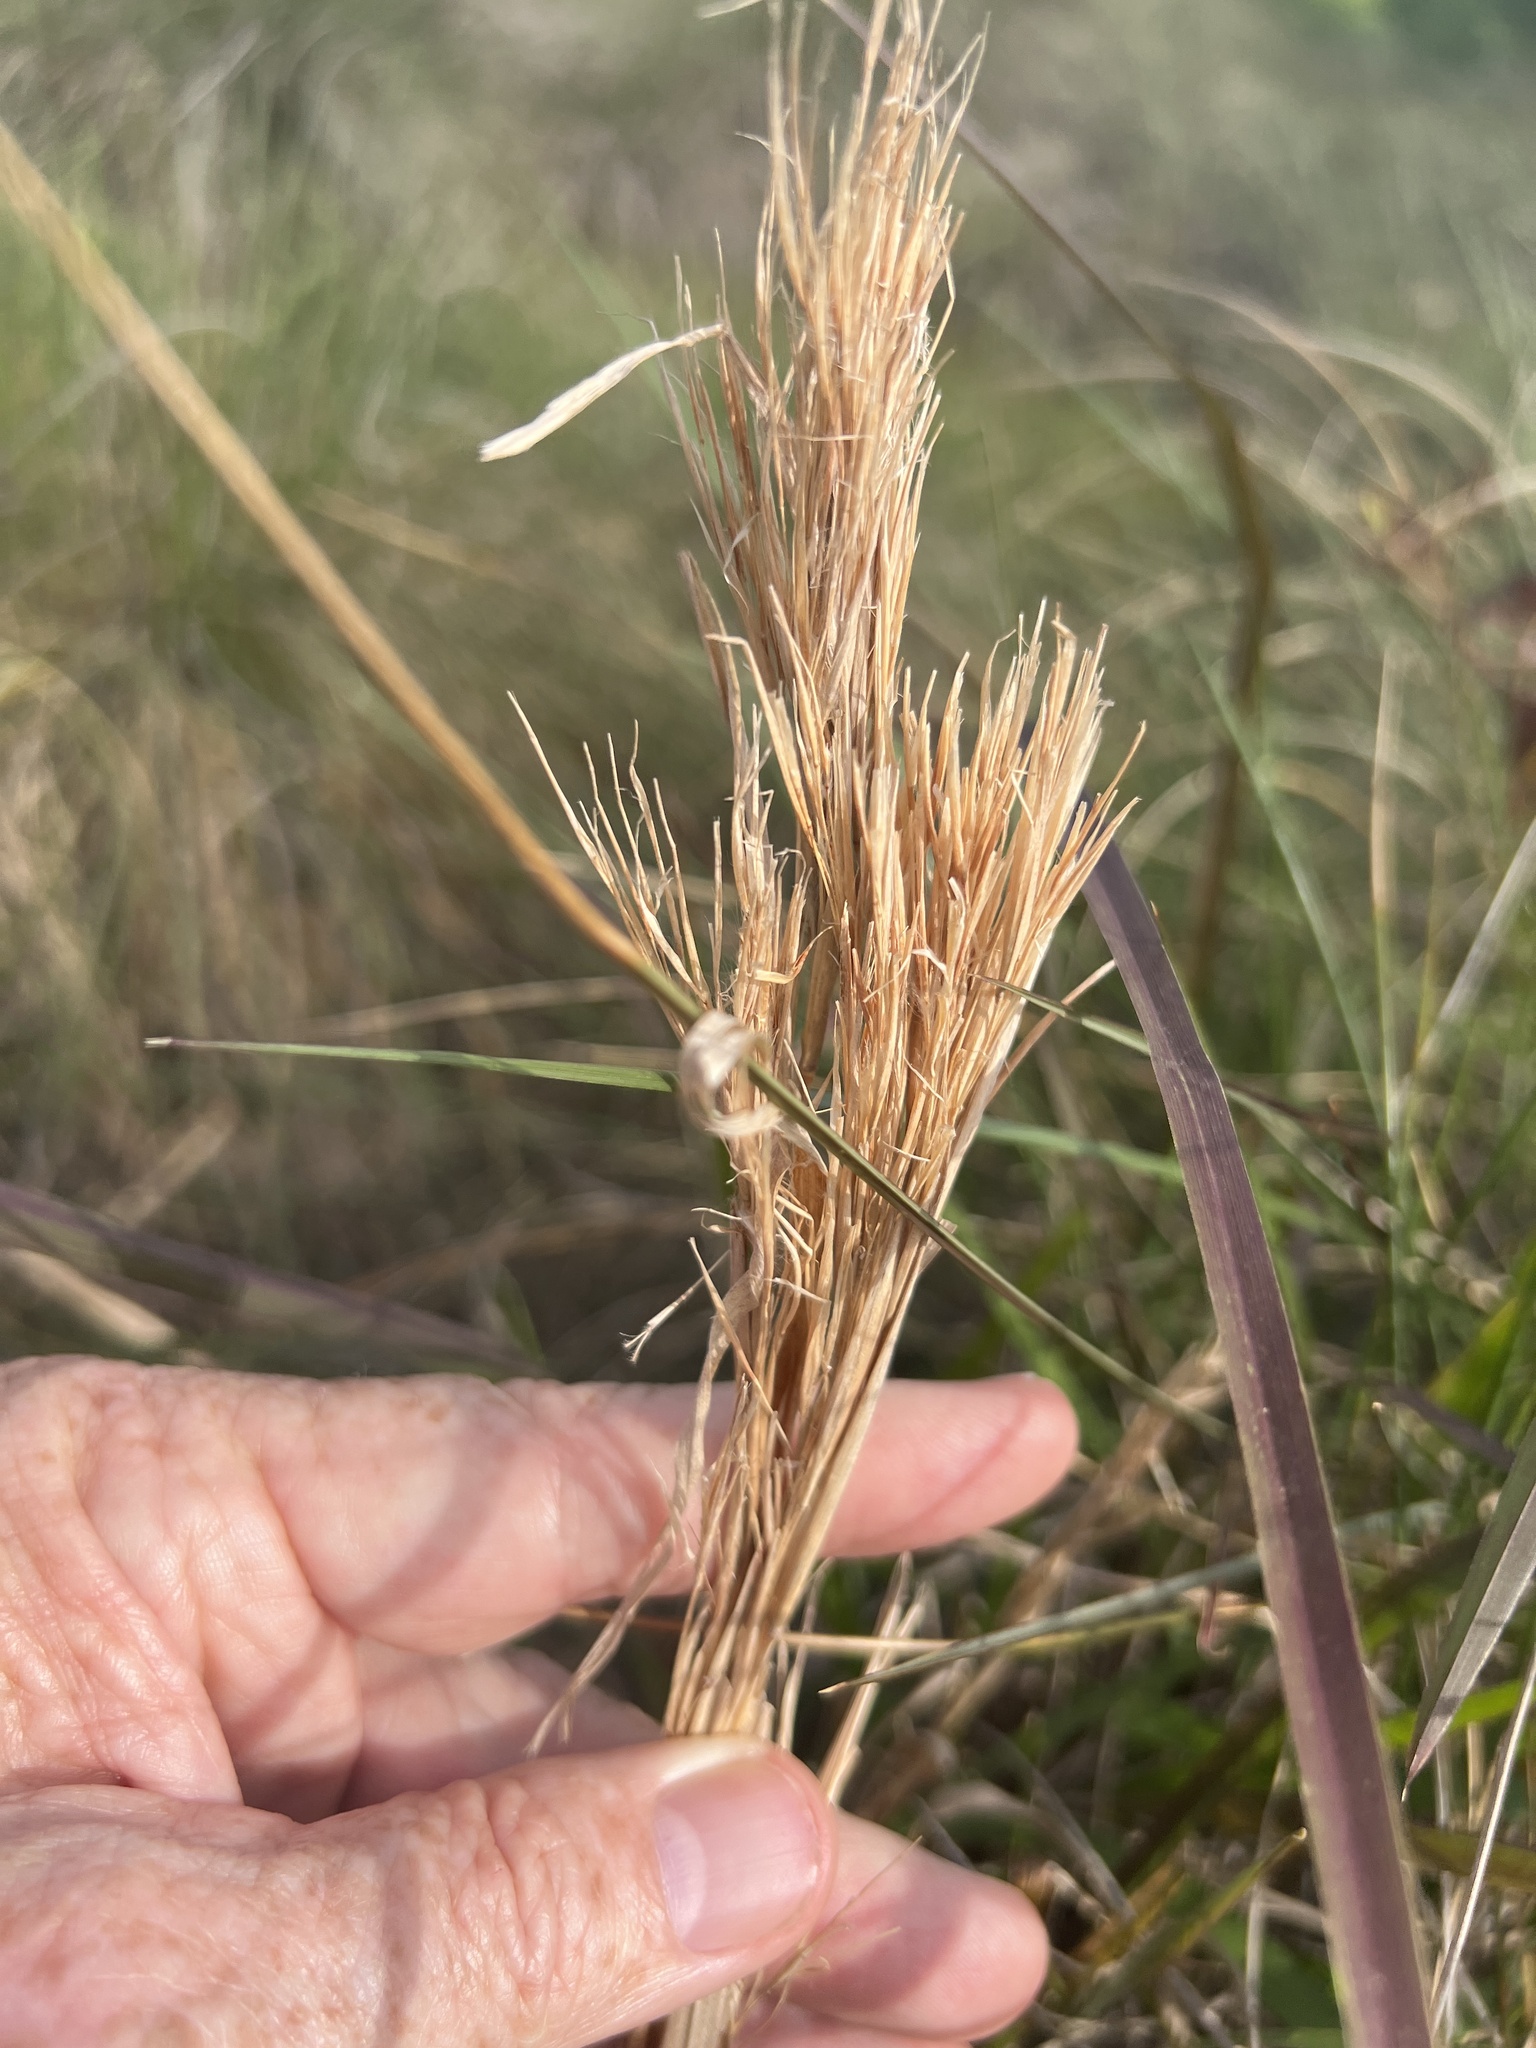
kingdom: Plantae
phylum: Tracheophyta
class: Liliopsida
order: Poales
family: Poaceae
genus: Andropogon
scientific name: Andropogon tenuispatheus
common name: Bushy bluestem
